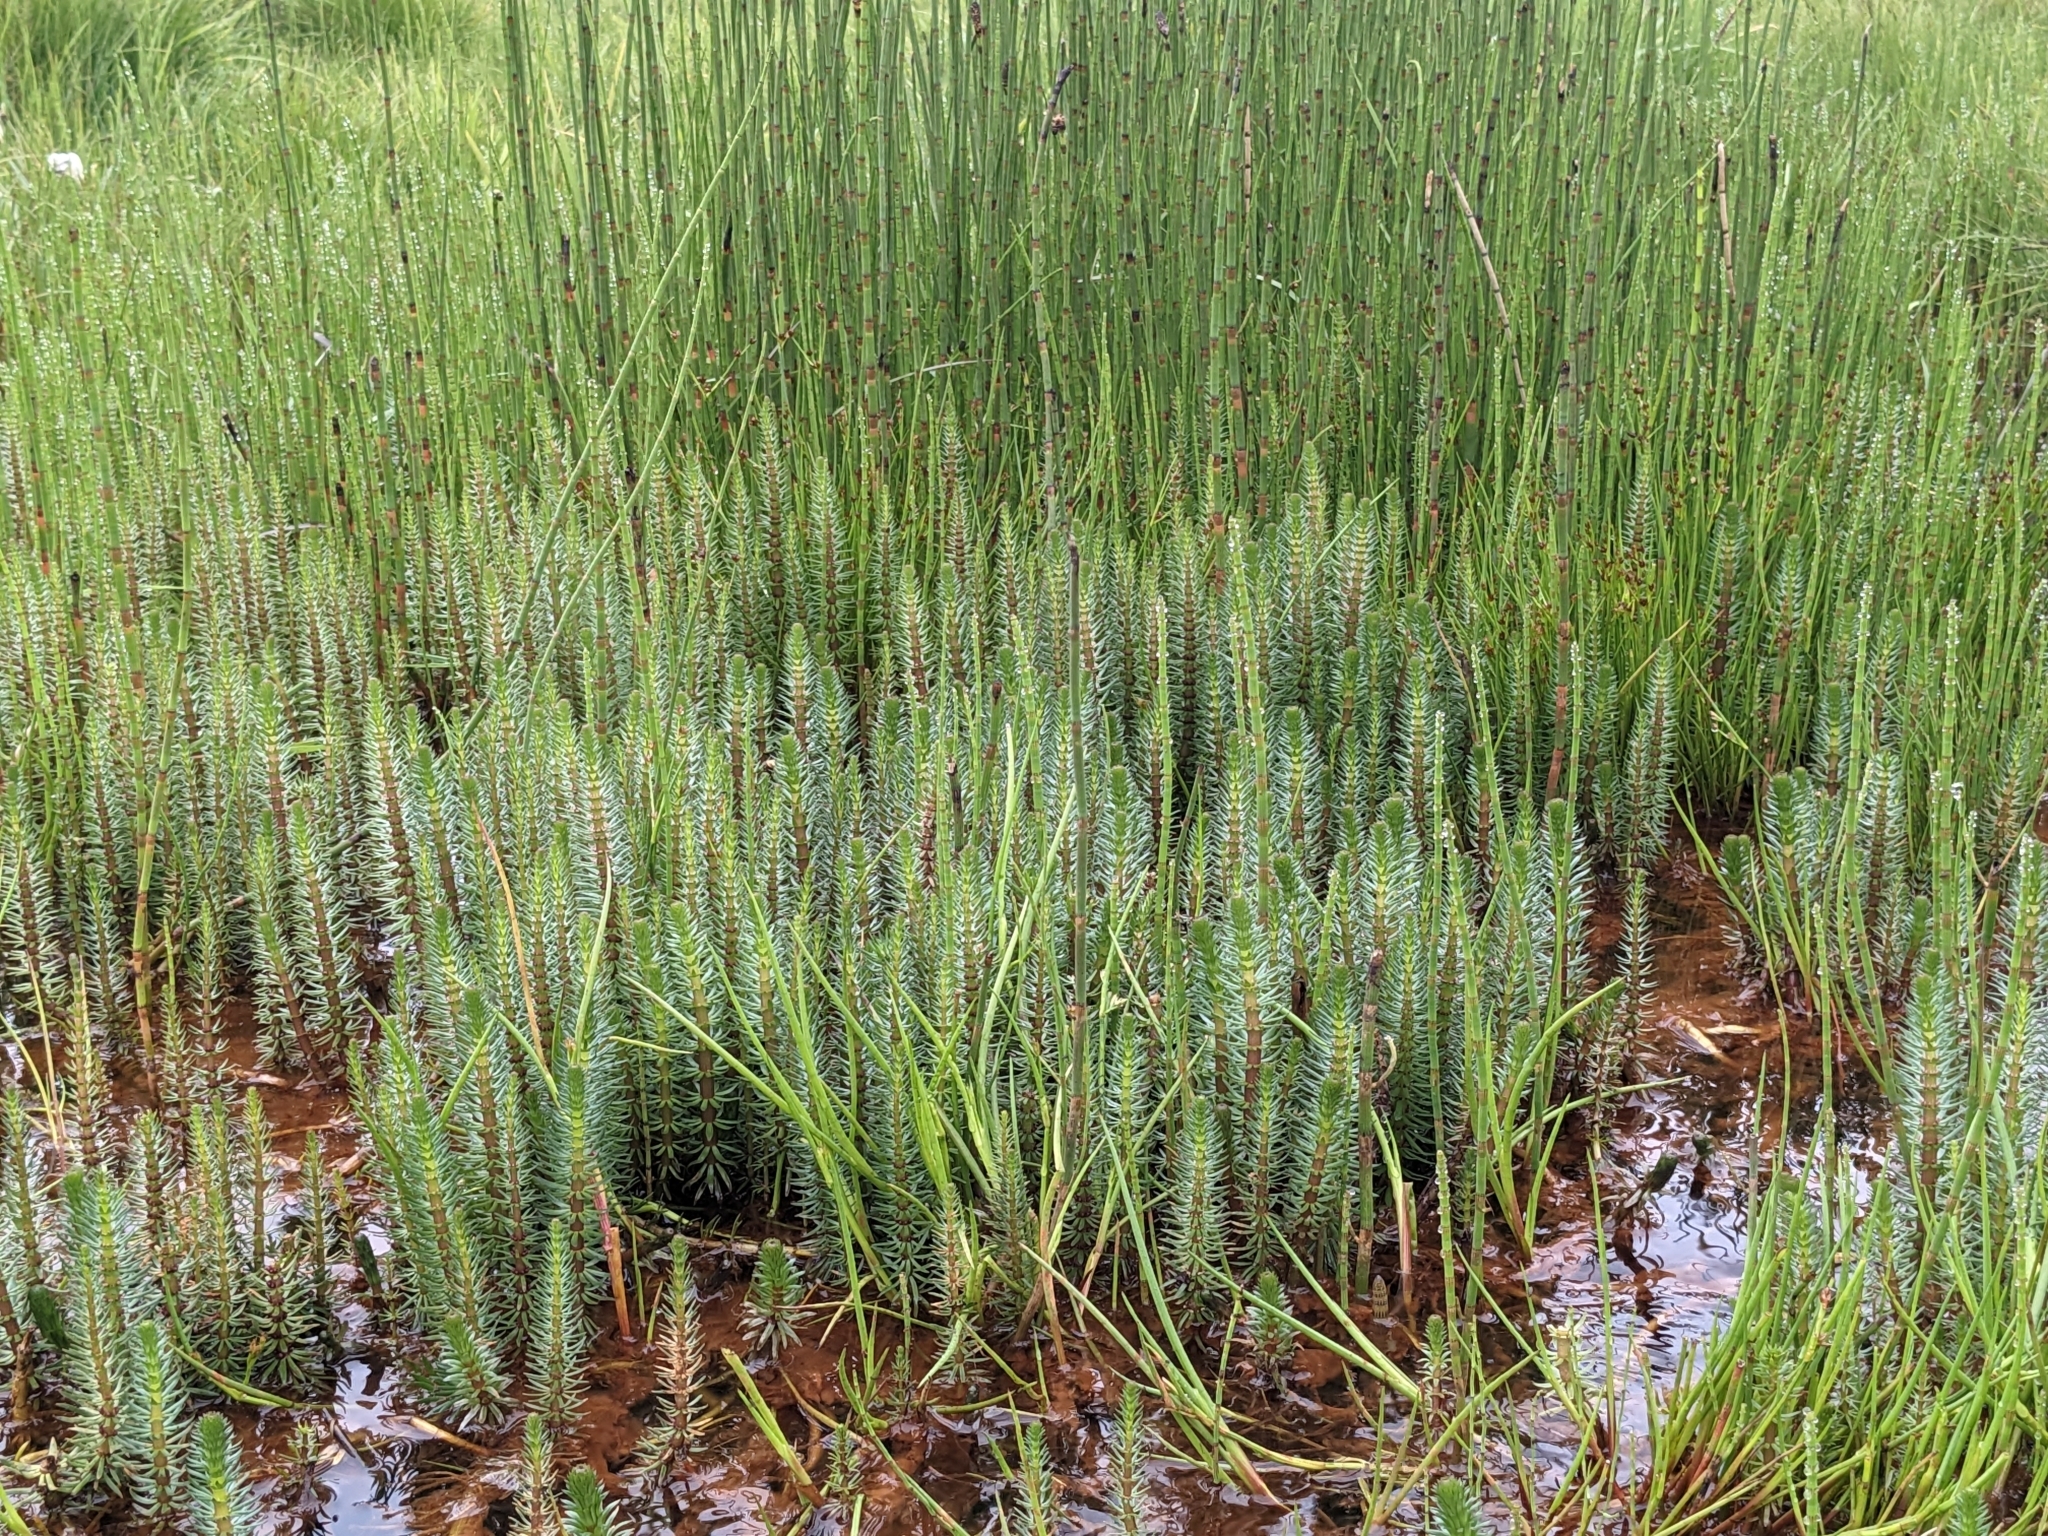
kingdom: Plantae
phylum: Tracheophyta
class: Magnoliopsida
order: Lamiales
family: Plantaginaceae
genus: Hippuris
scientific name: Hippuris vulgaris
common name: Mare's-tail
